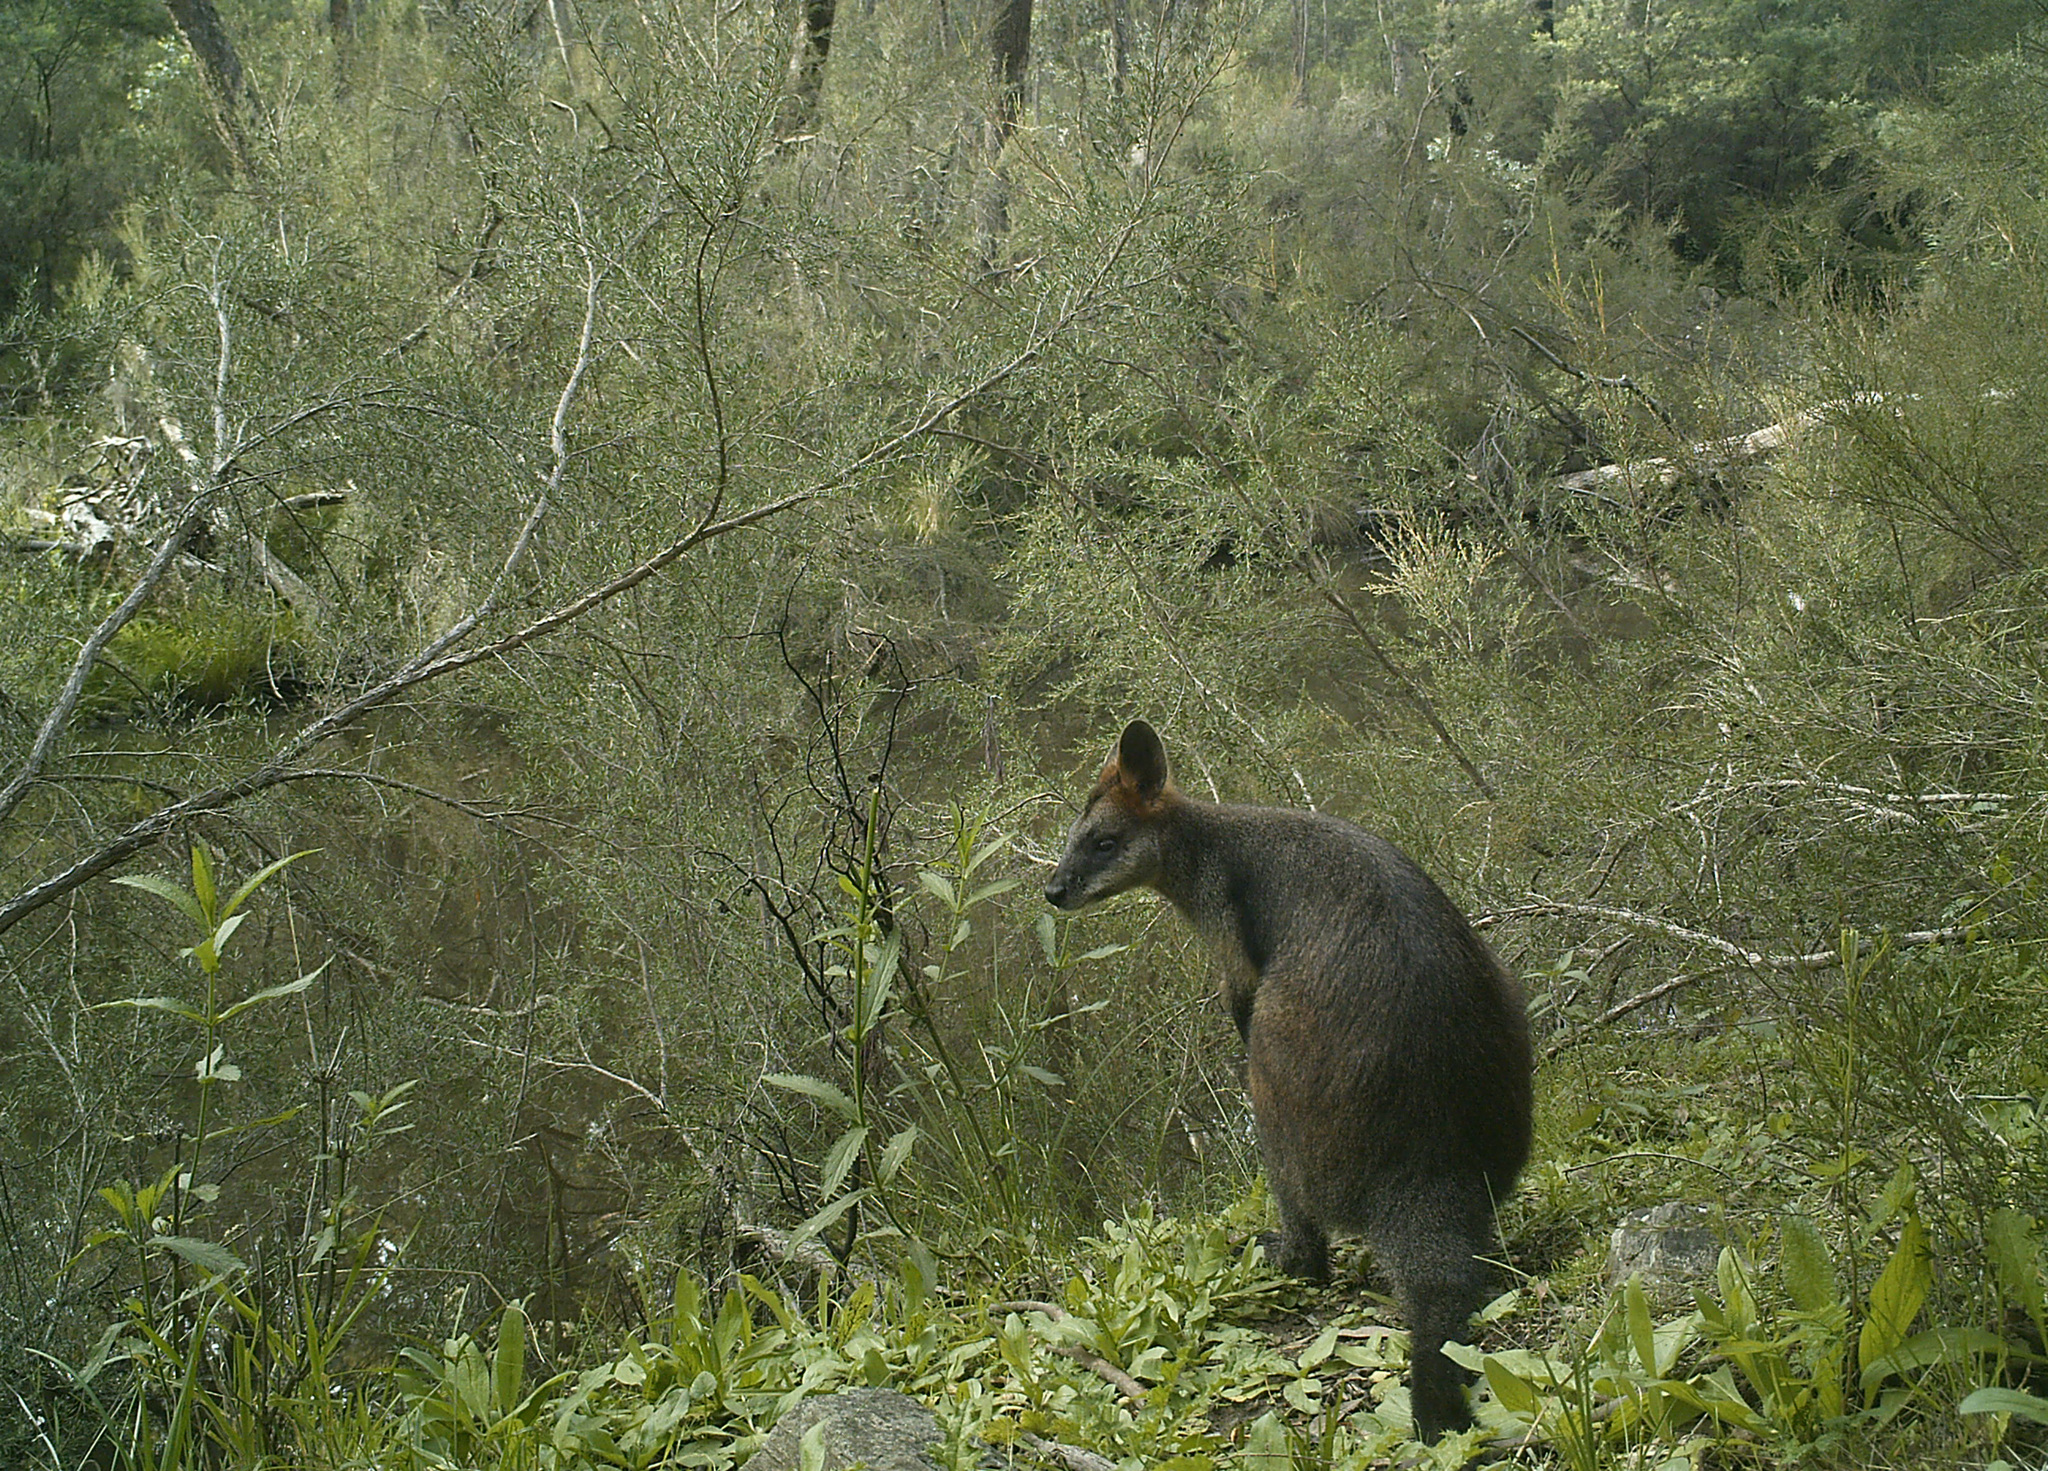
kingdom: Animalia
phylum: Chordata
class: Mammalia
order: Diprotodontia
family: Macropodidae
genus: Wallabia
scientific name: Wallabia bicolor
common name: Swamp wallaby
